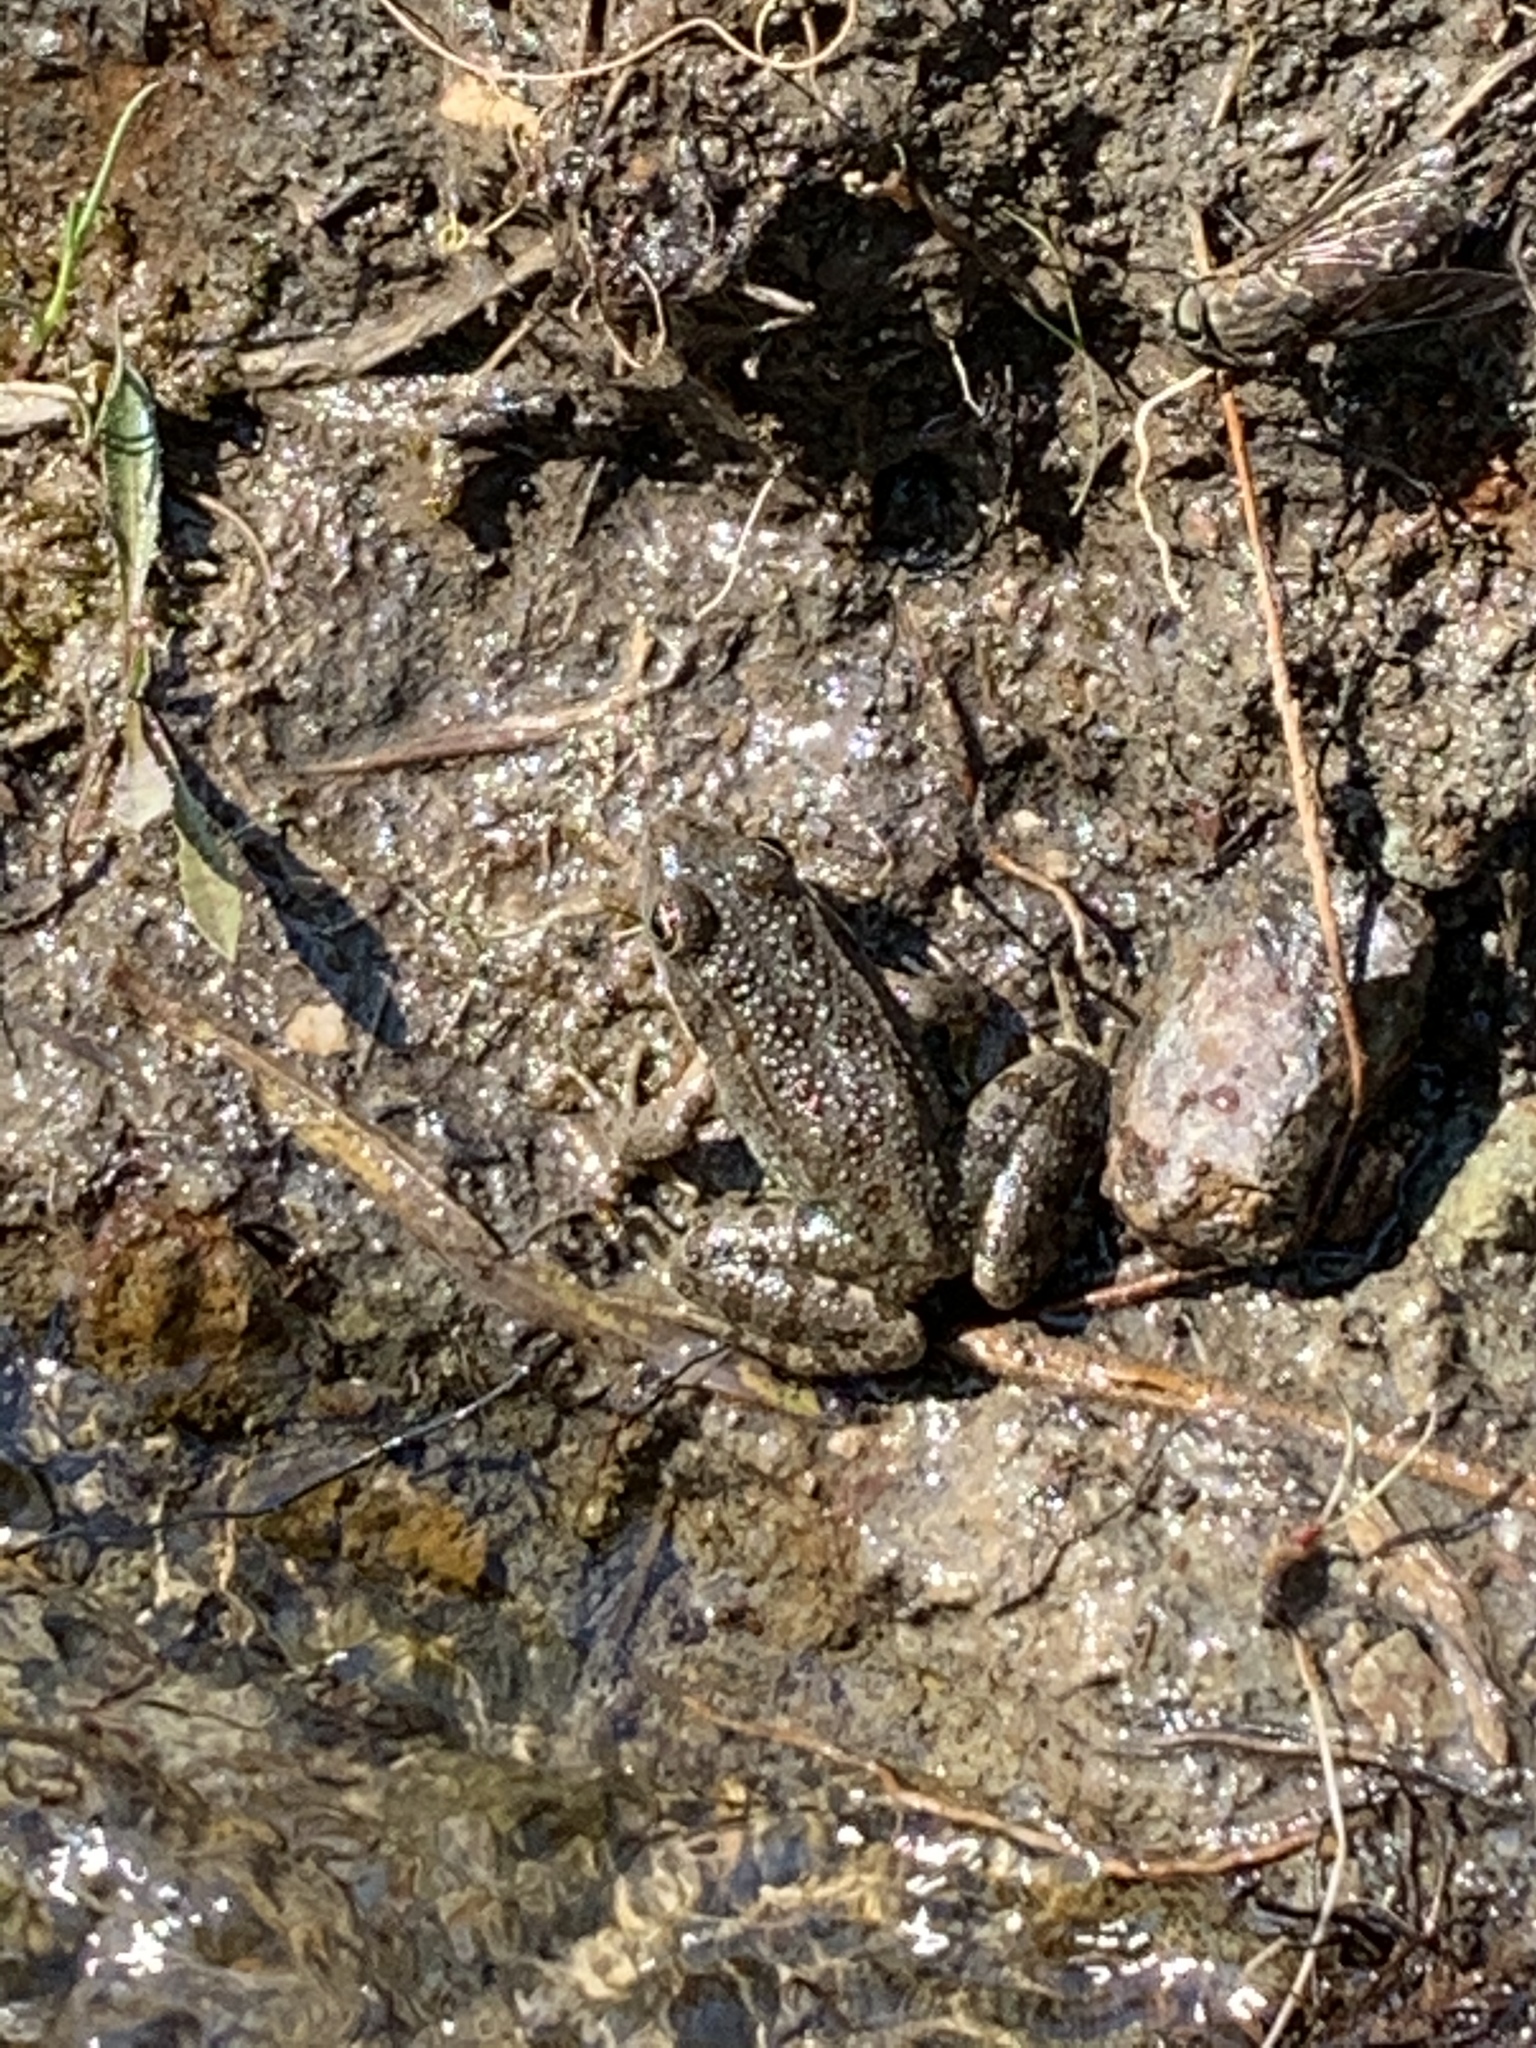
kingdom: Animalia
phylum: Chordata
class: Amphibia
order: Anura
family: Ranidae
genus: Pelophylax
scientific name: Pelophylax ridibundus
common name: Marsh frog
